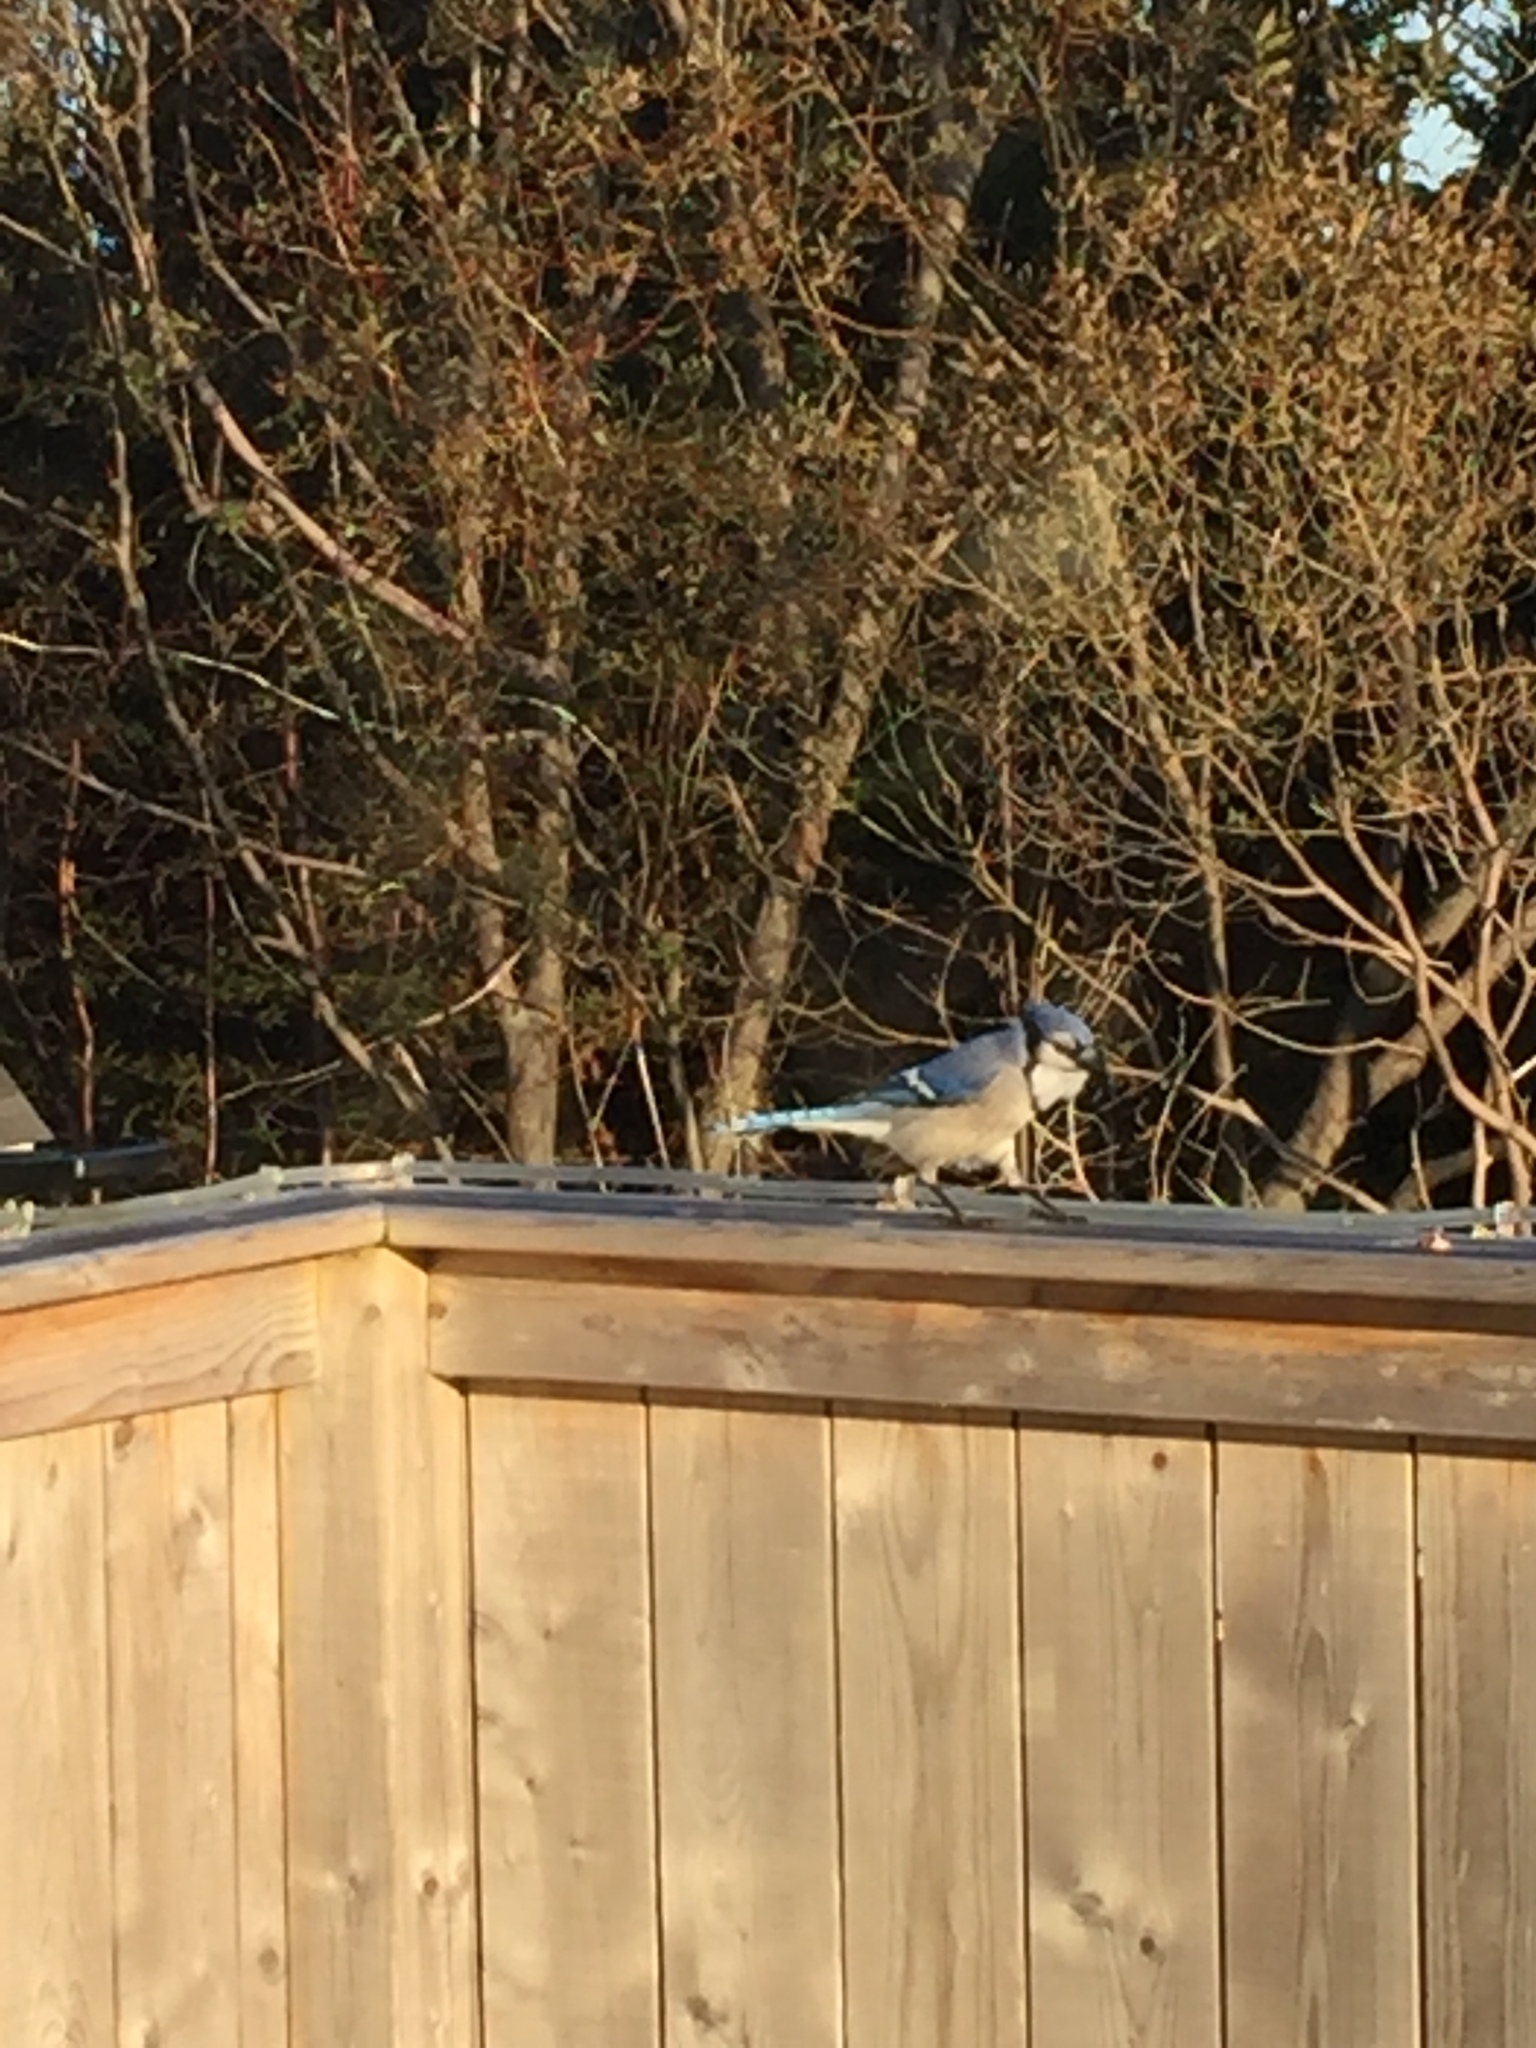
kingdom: Animalia
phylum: Chordata
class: Aves
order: Passeriformes
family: Corvidae
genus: Cyanocitta
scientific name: Cyanocitta cristata
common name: Blue jay
